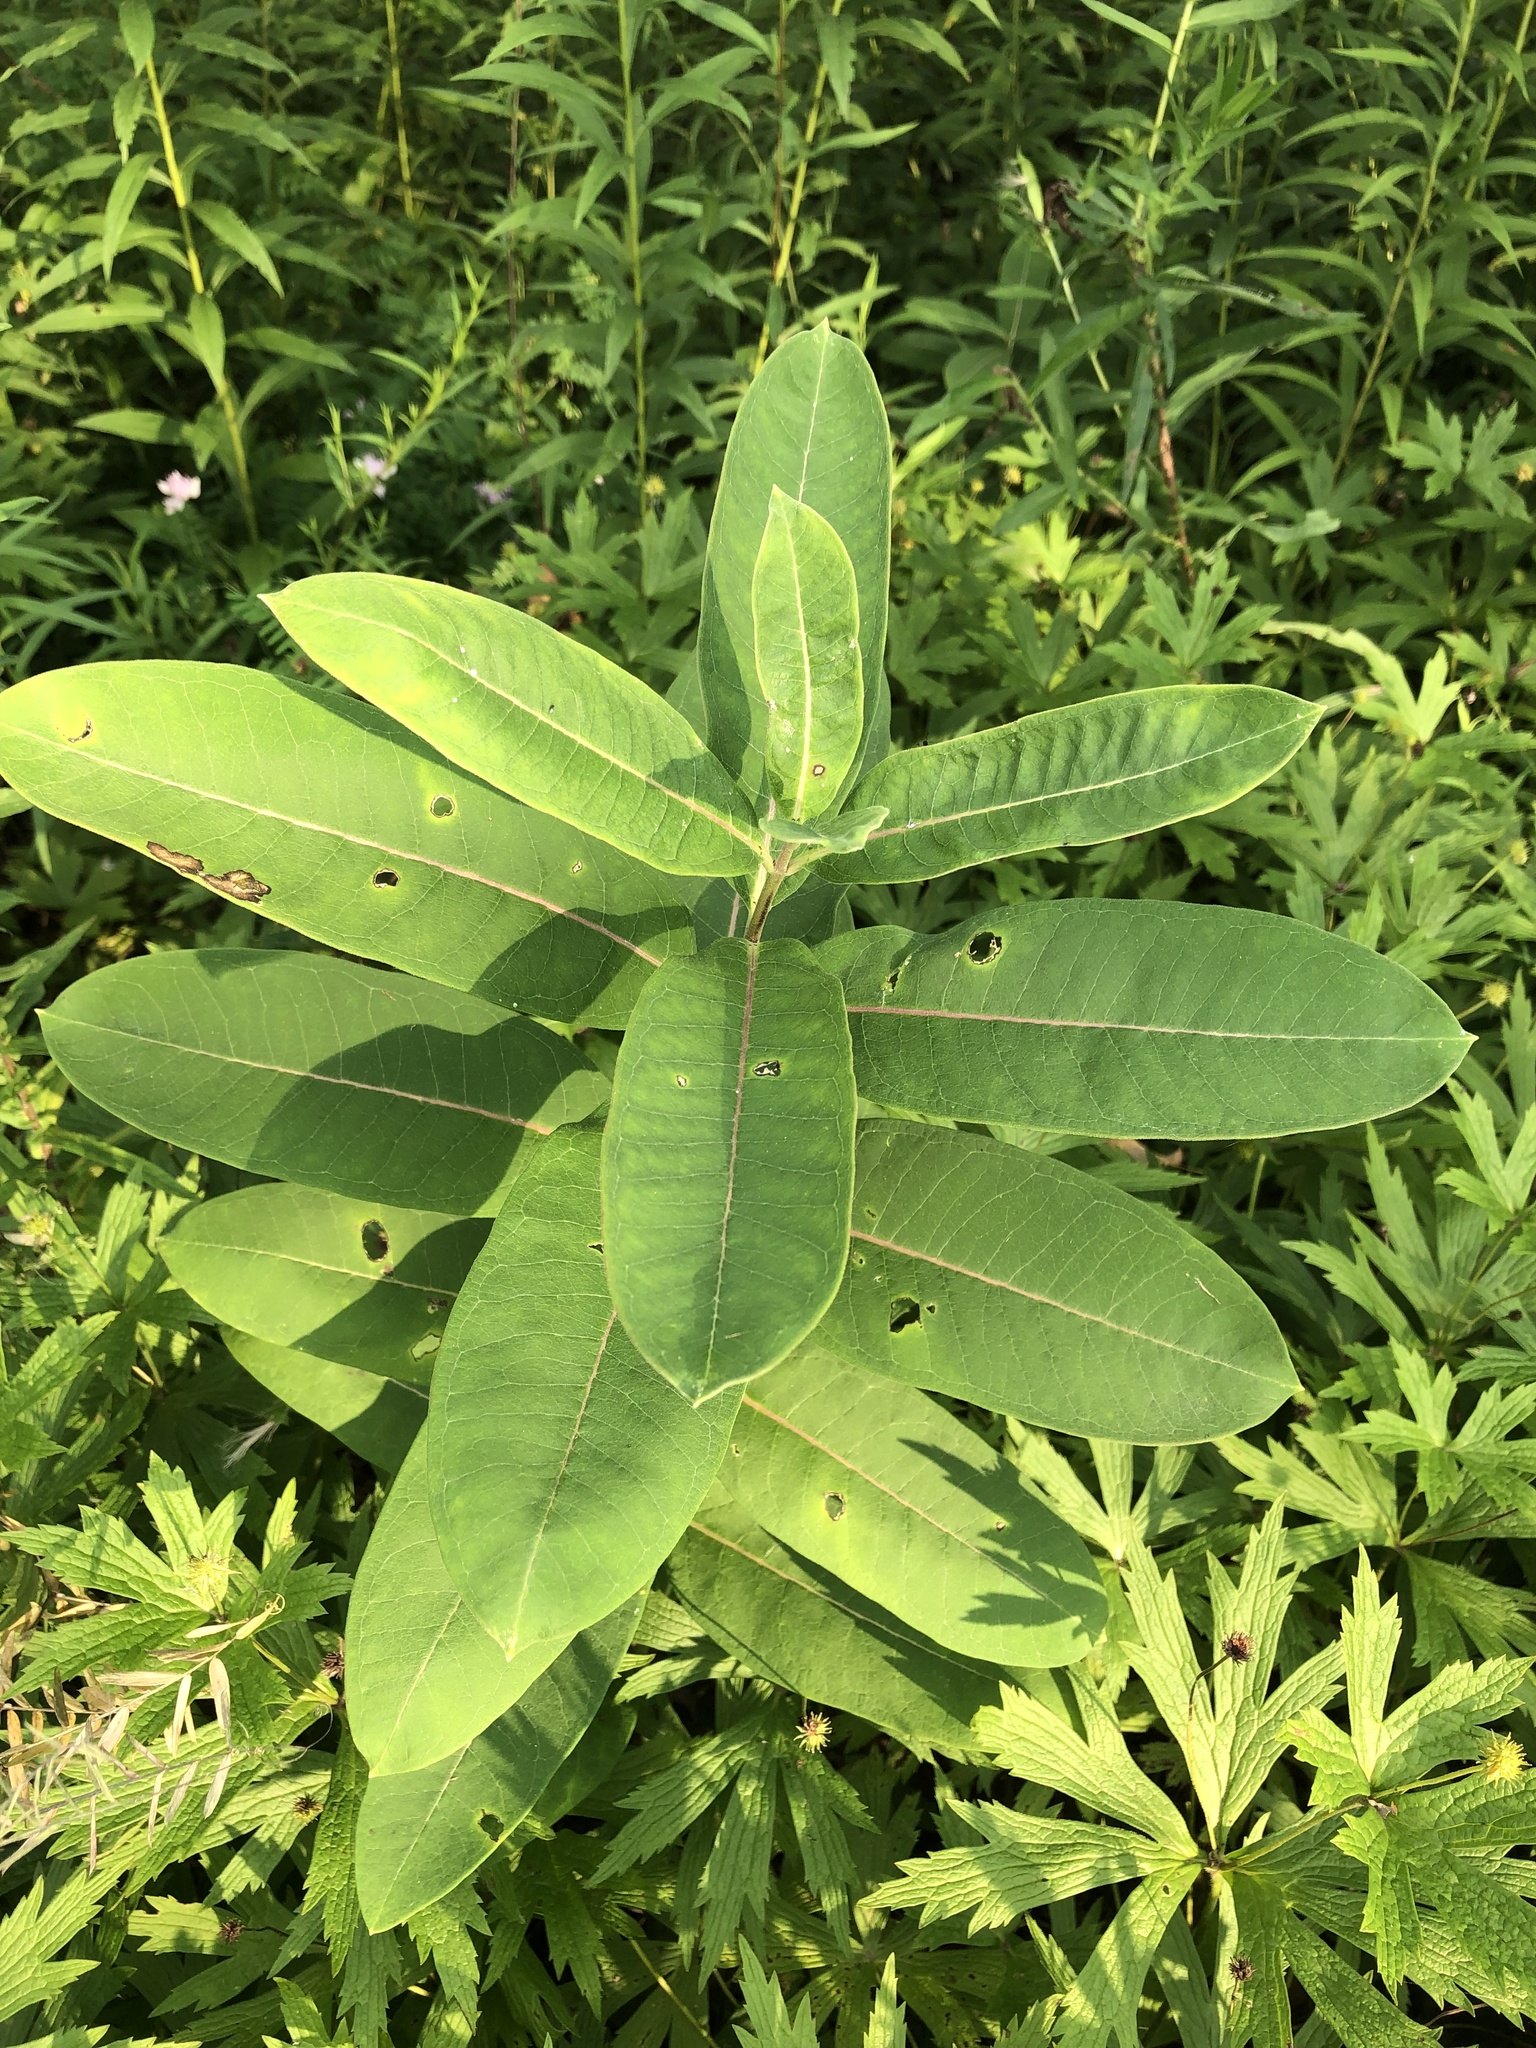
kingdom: Plantae
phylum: Tracheophyta
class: Magnoliopsida
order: Gentianales
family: Apocynaceae
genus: Asclepias
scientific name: Asclepias syriaca
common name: Common milkweed
